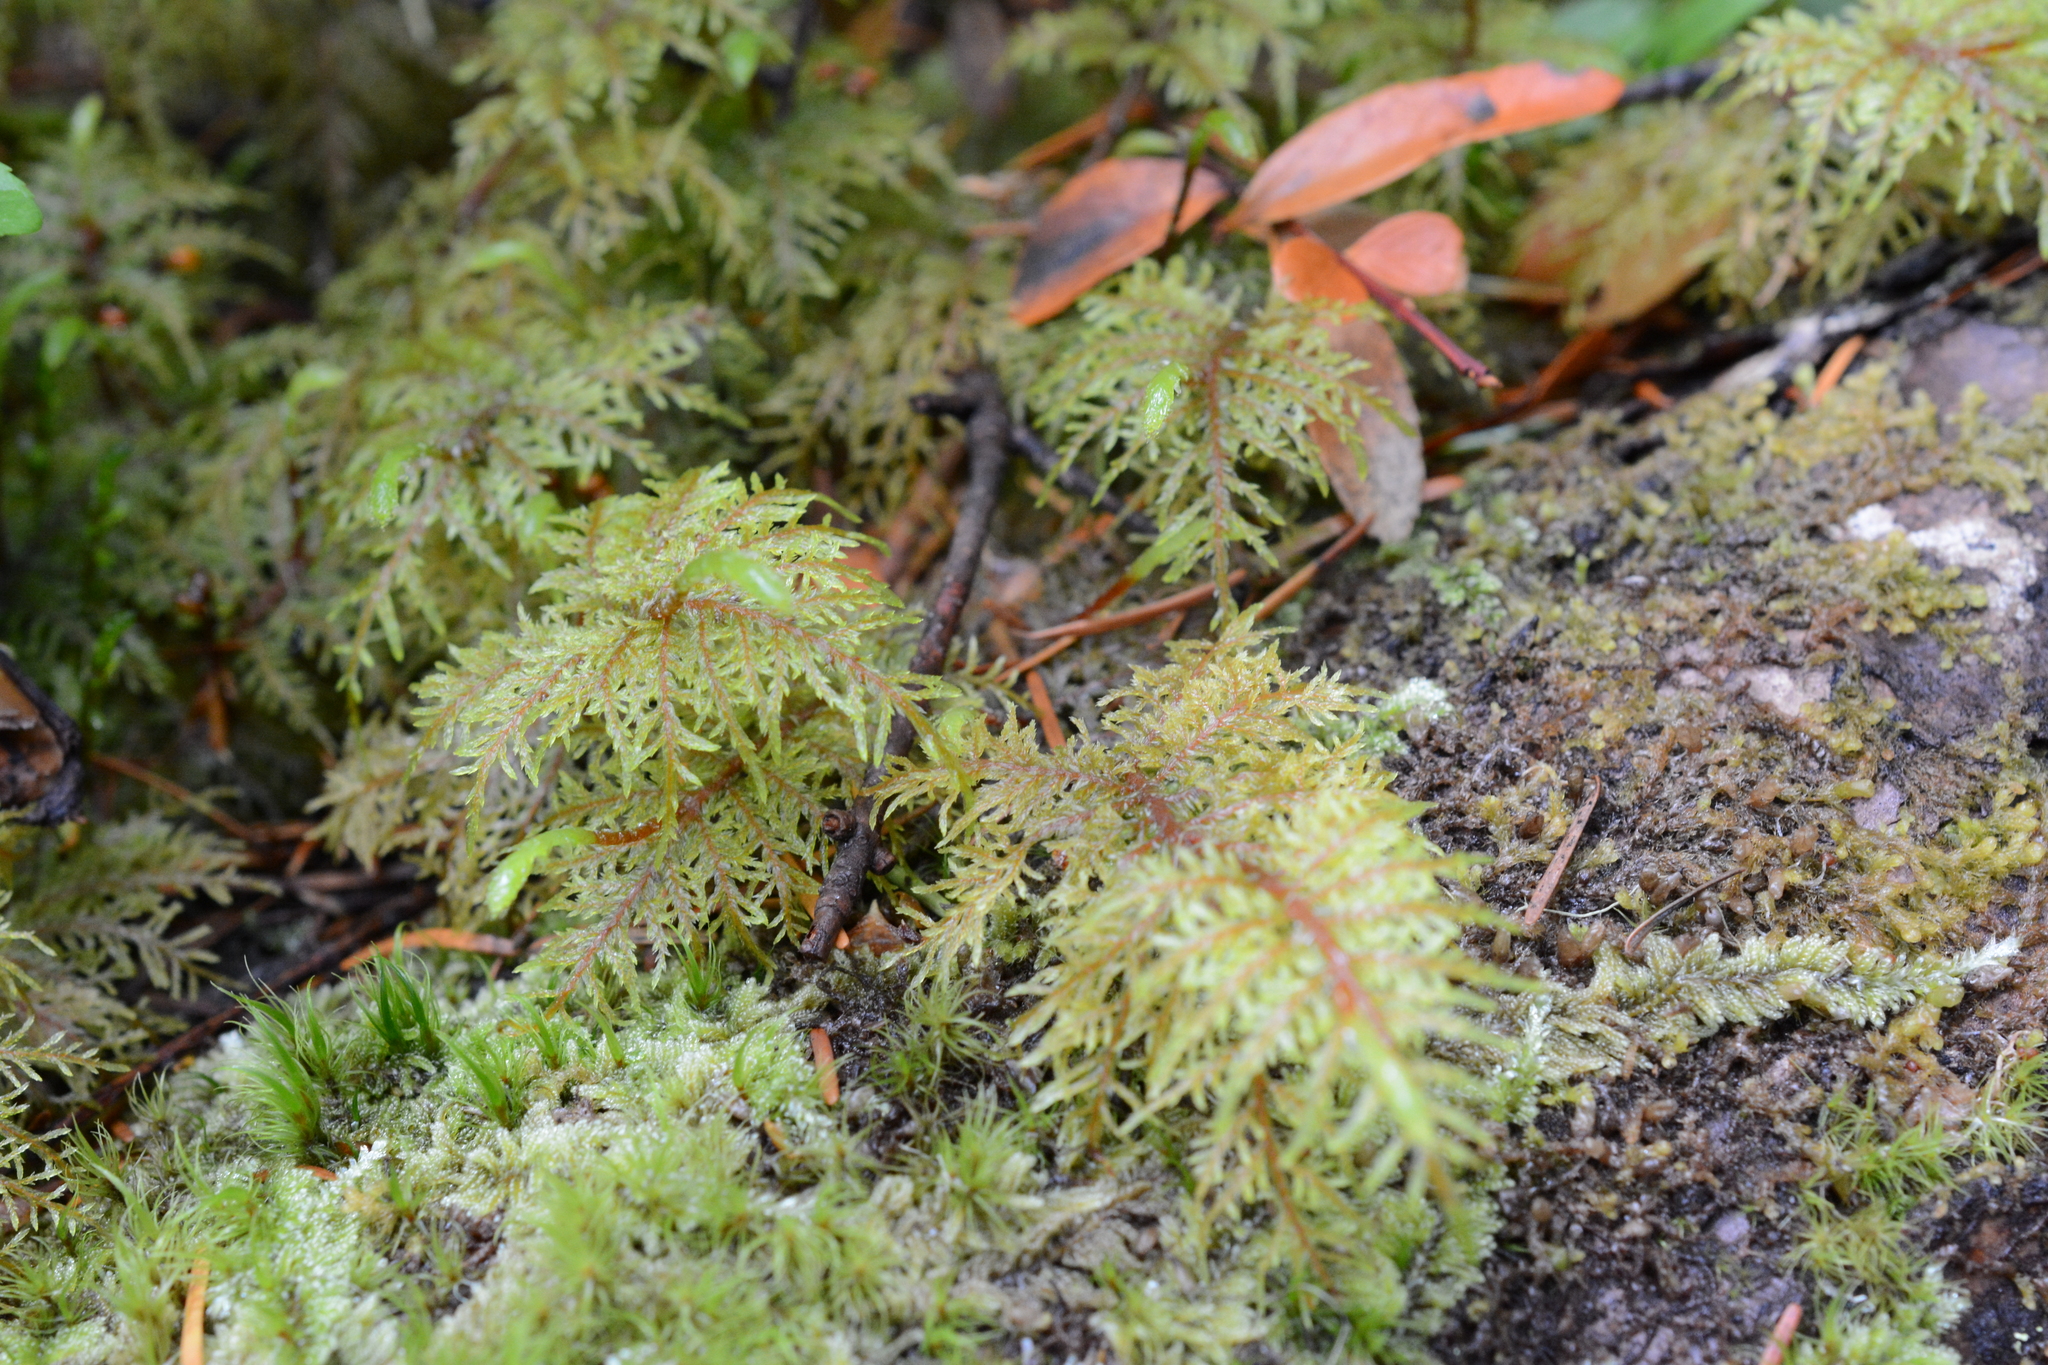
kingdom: Plantae
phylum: Bryophyta
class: Bryopsida
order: Hypnales
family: Hylocomiaceae
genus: Hylocomium
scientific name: Hylocomium splendens
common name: Stairstep moss
